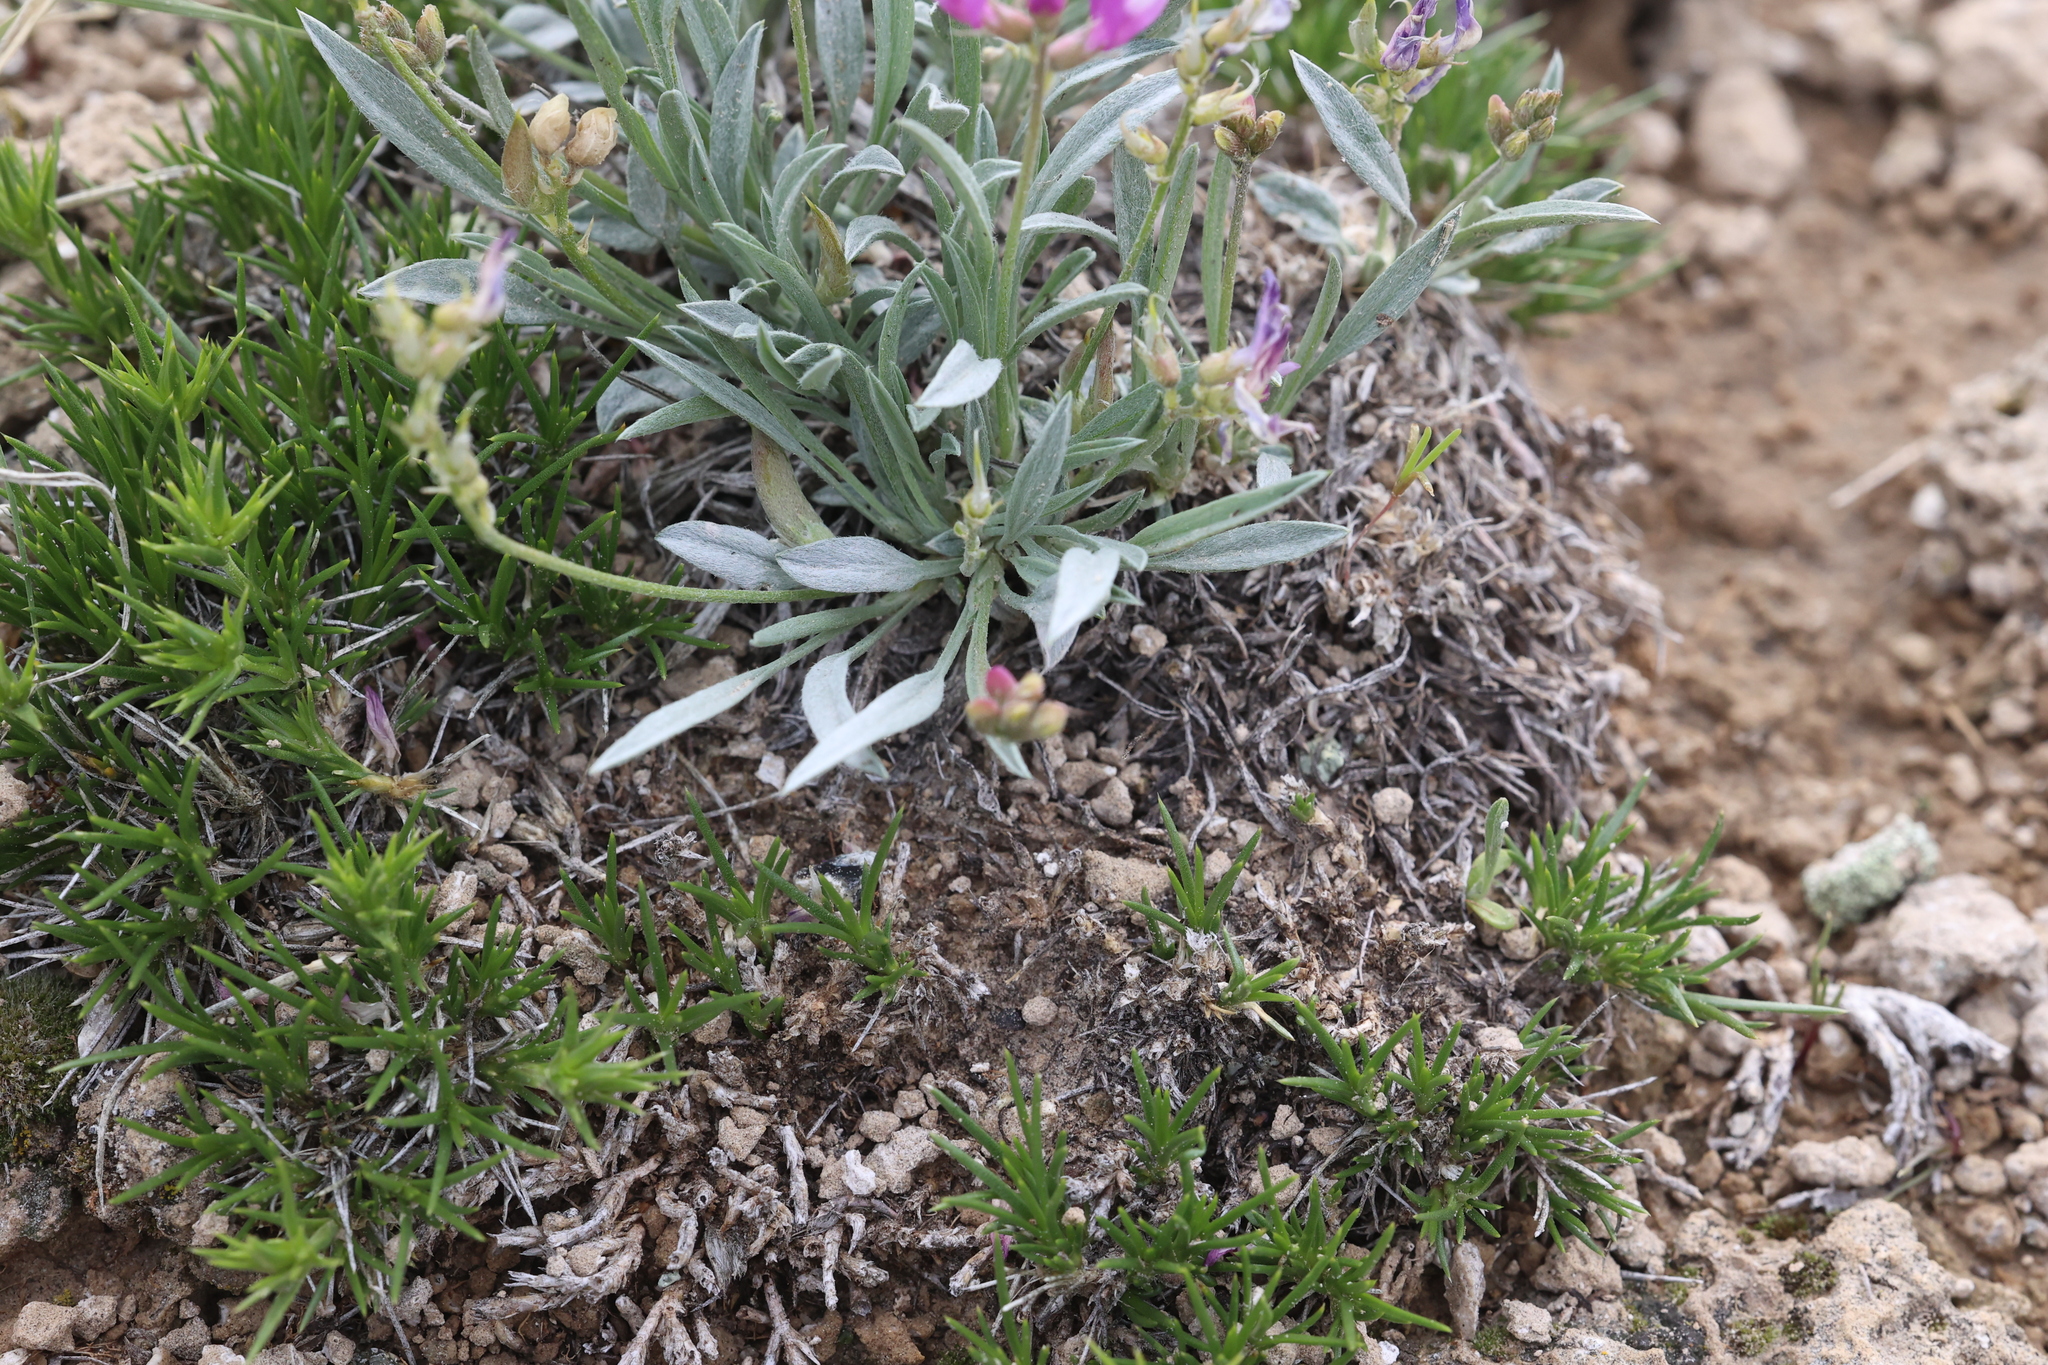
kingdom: Plantae
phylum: Tracheophyta
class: Magnoliopsida
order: Fabales
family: Fabaceae
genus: Astragalus
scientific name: Astragalus spatulatus
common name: Draba milk-vetch
